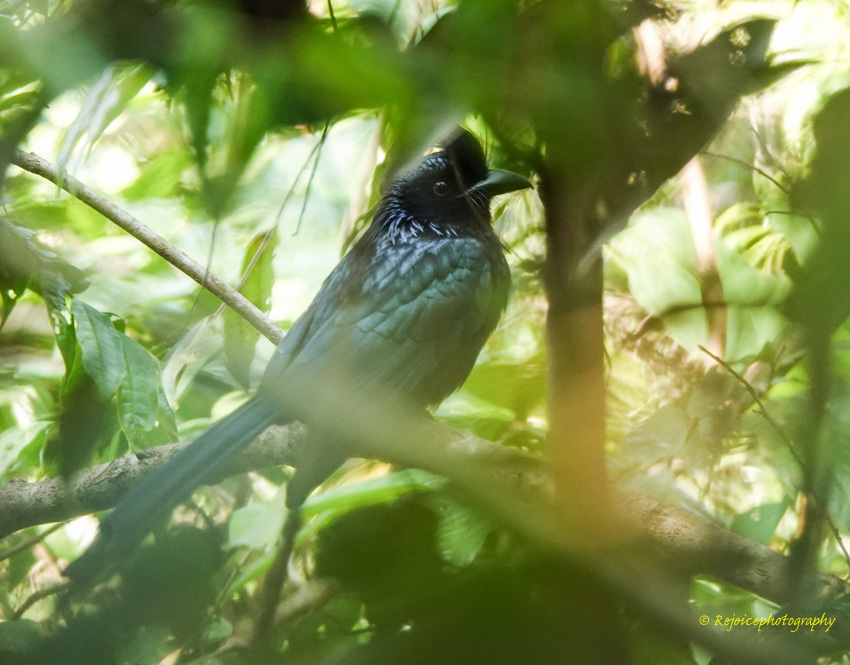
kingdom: Animalia
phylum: Chordata
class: Aves
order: Passeriformes
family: Dicruridae
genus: Dicrurus
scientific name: Dicrurus paradiseus
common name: Greater racket-tailed drongo
